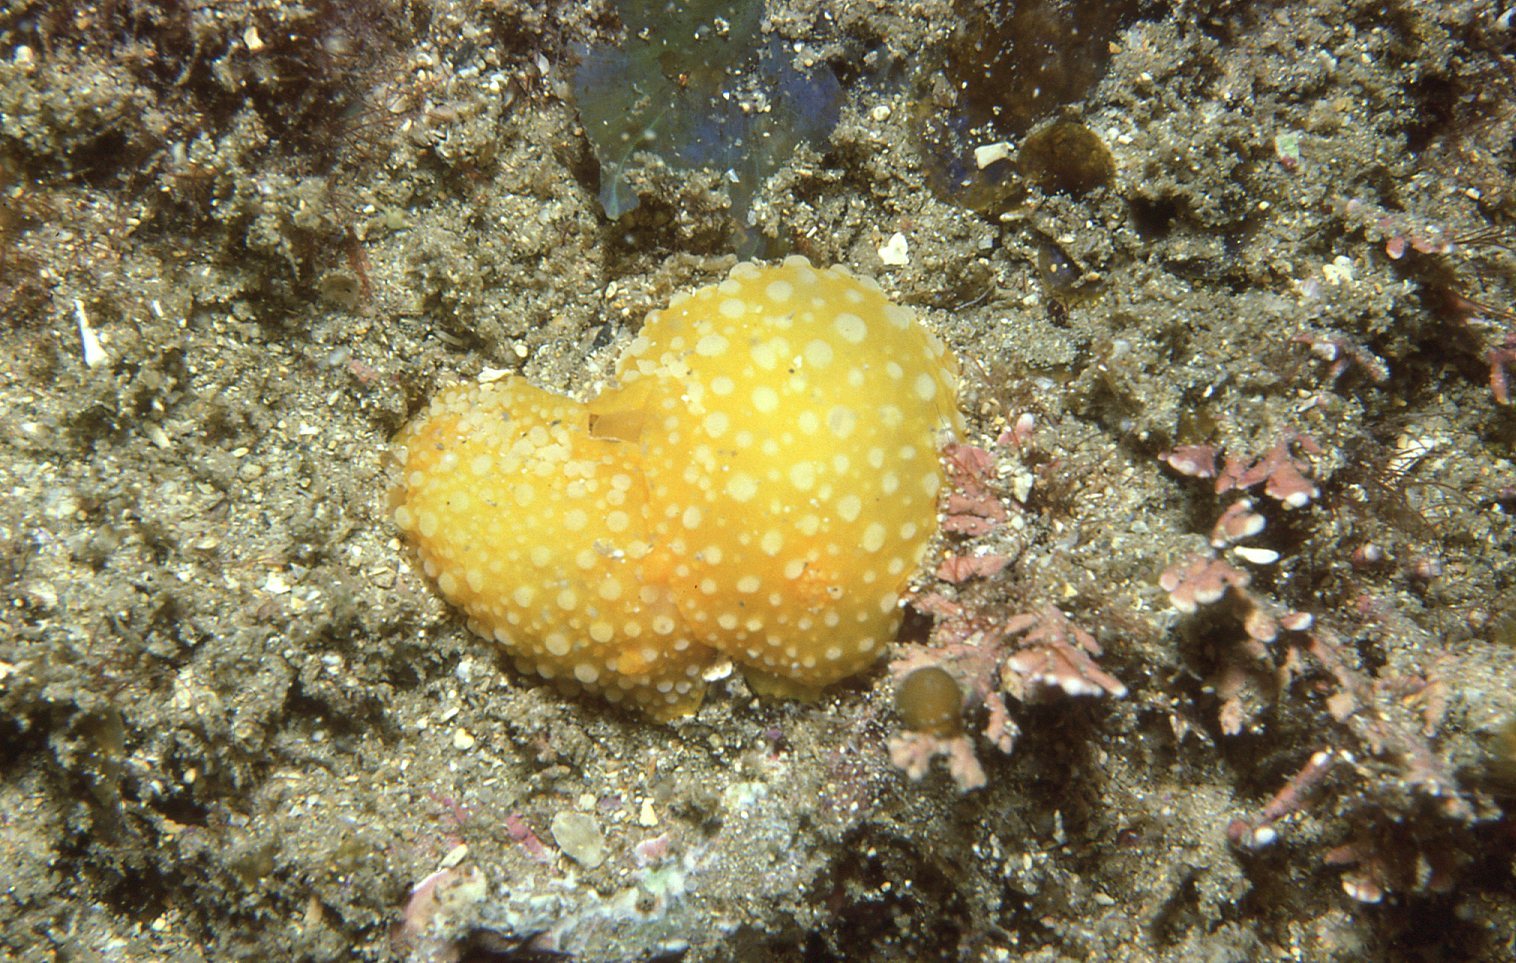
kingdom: Animalia
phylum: Mollusca
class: Gastropoda
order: Nudibranchia
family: Dorididae
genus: Doris
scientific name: Doris chrysoderma
